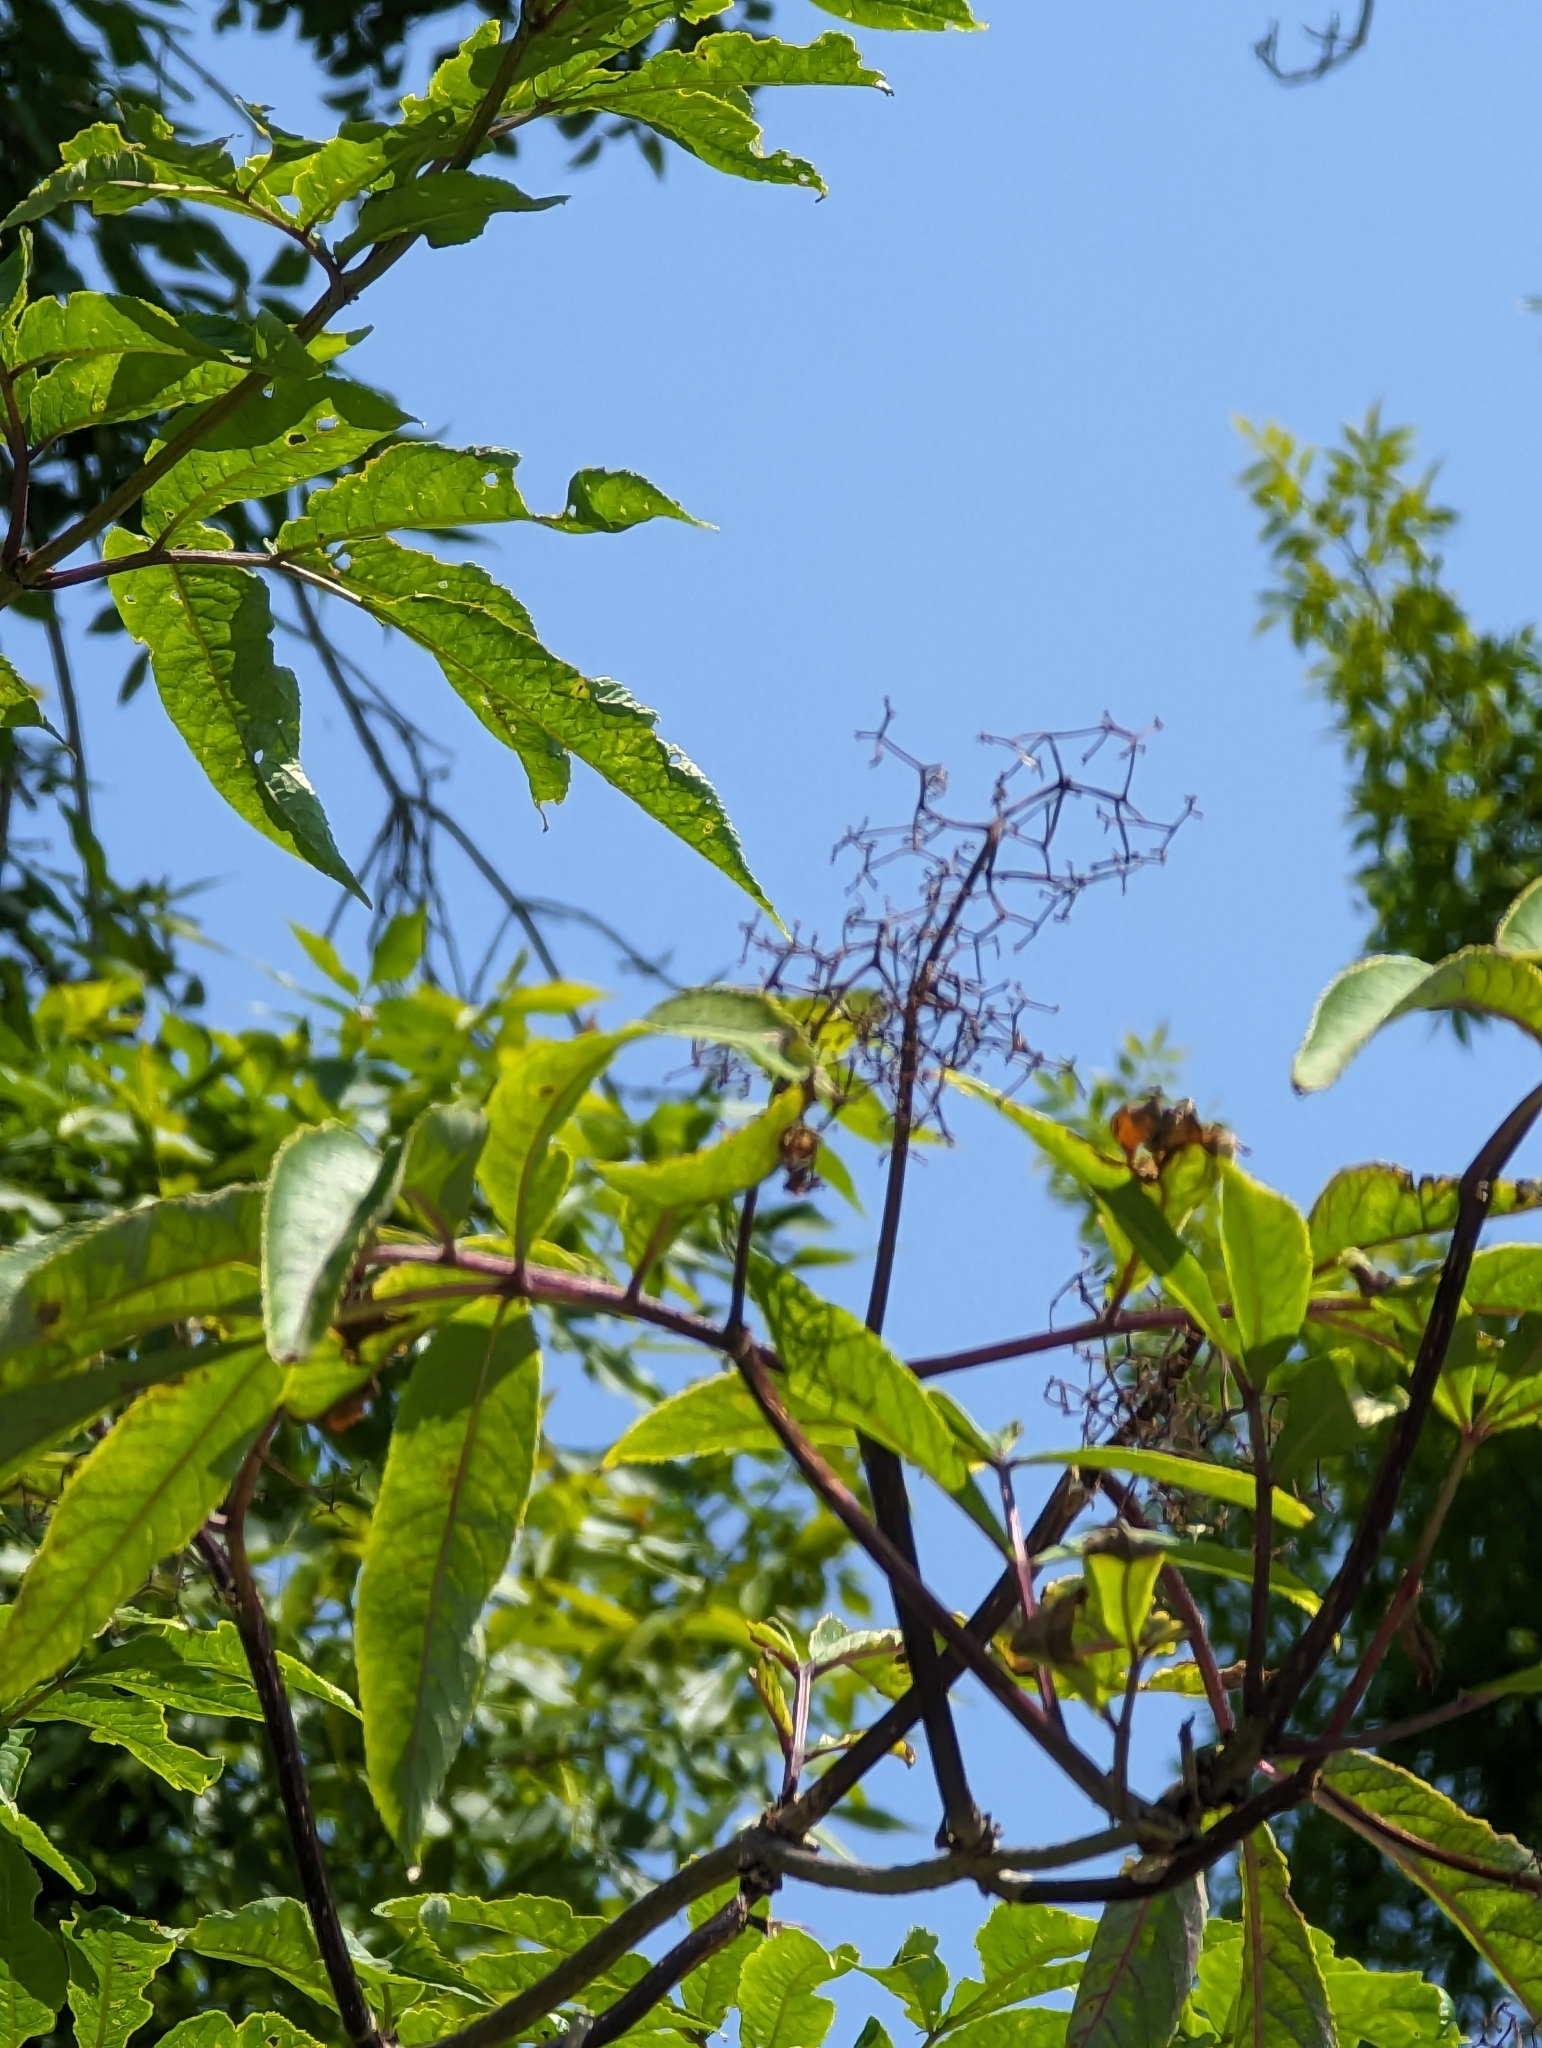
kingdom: Plantae
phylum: Tracheophyta
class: Magnoliopsida
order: Dipsacales
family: Viburnaceae
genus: Sambucus
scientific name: Sambucus racemosa
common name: Red-berried elder
